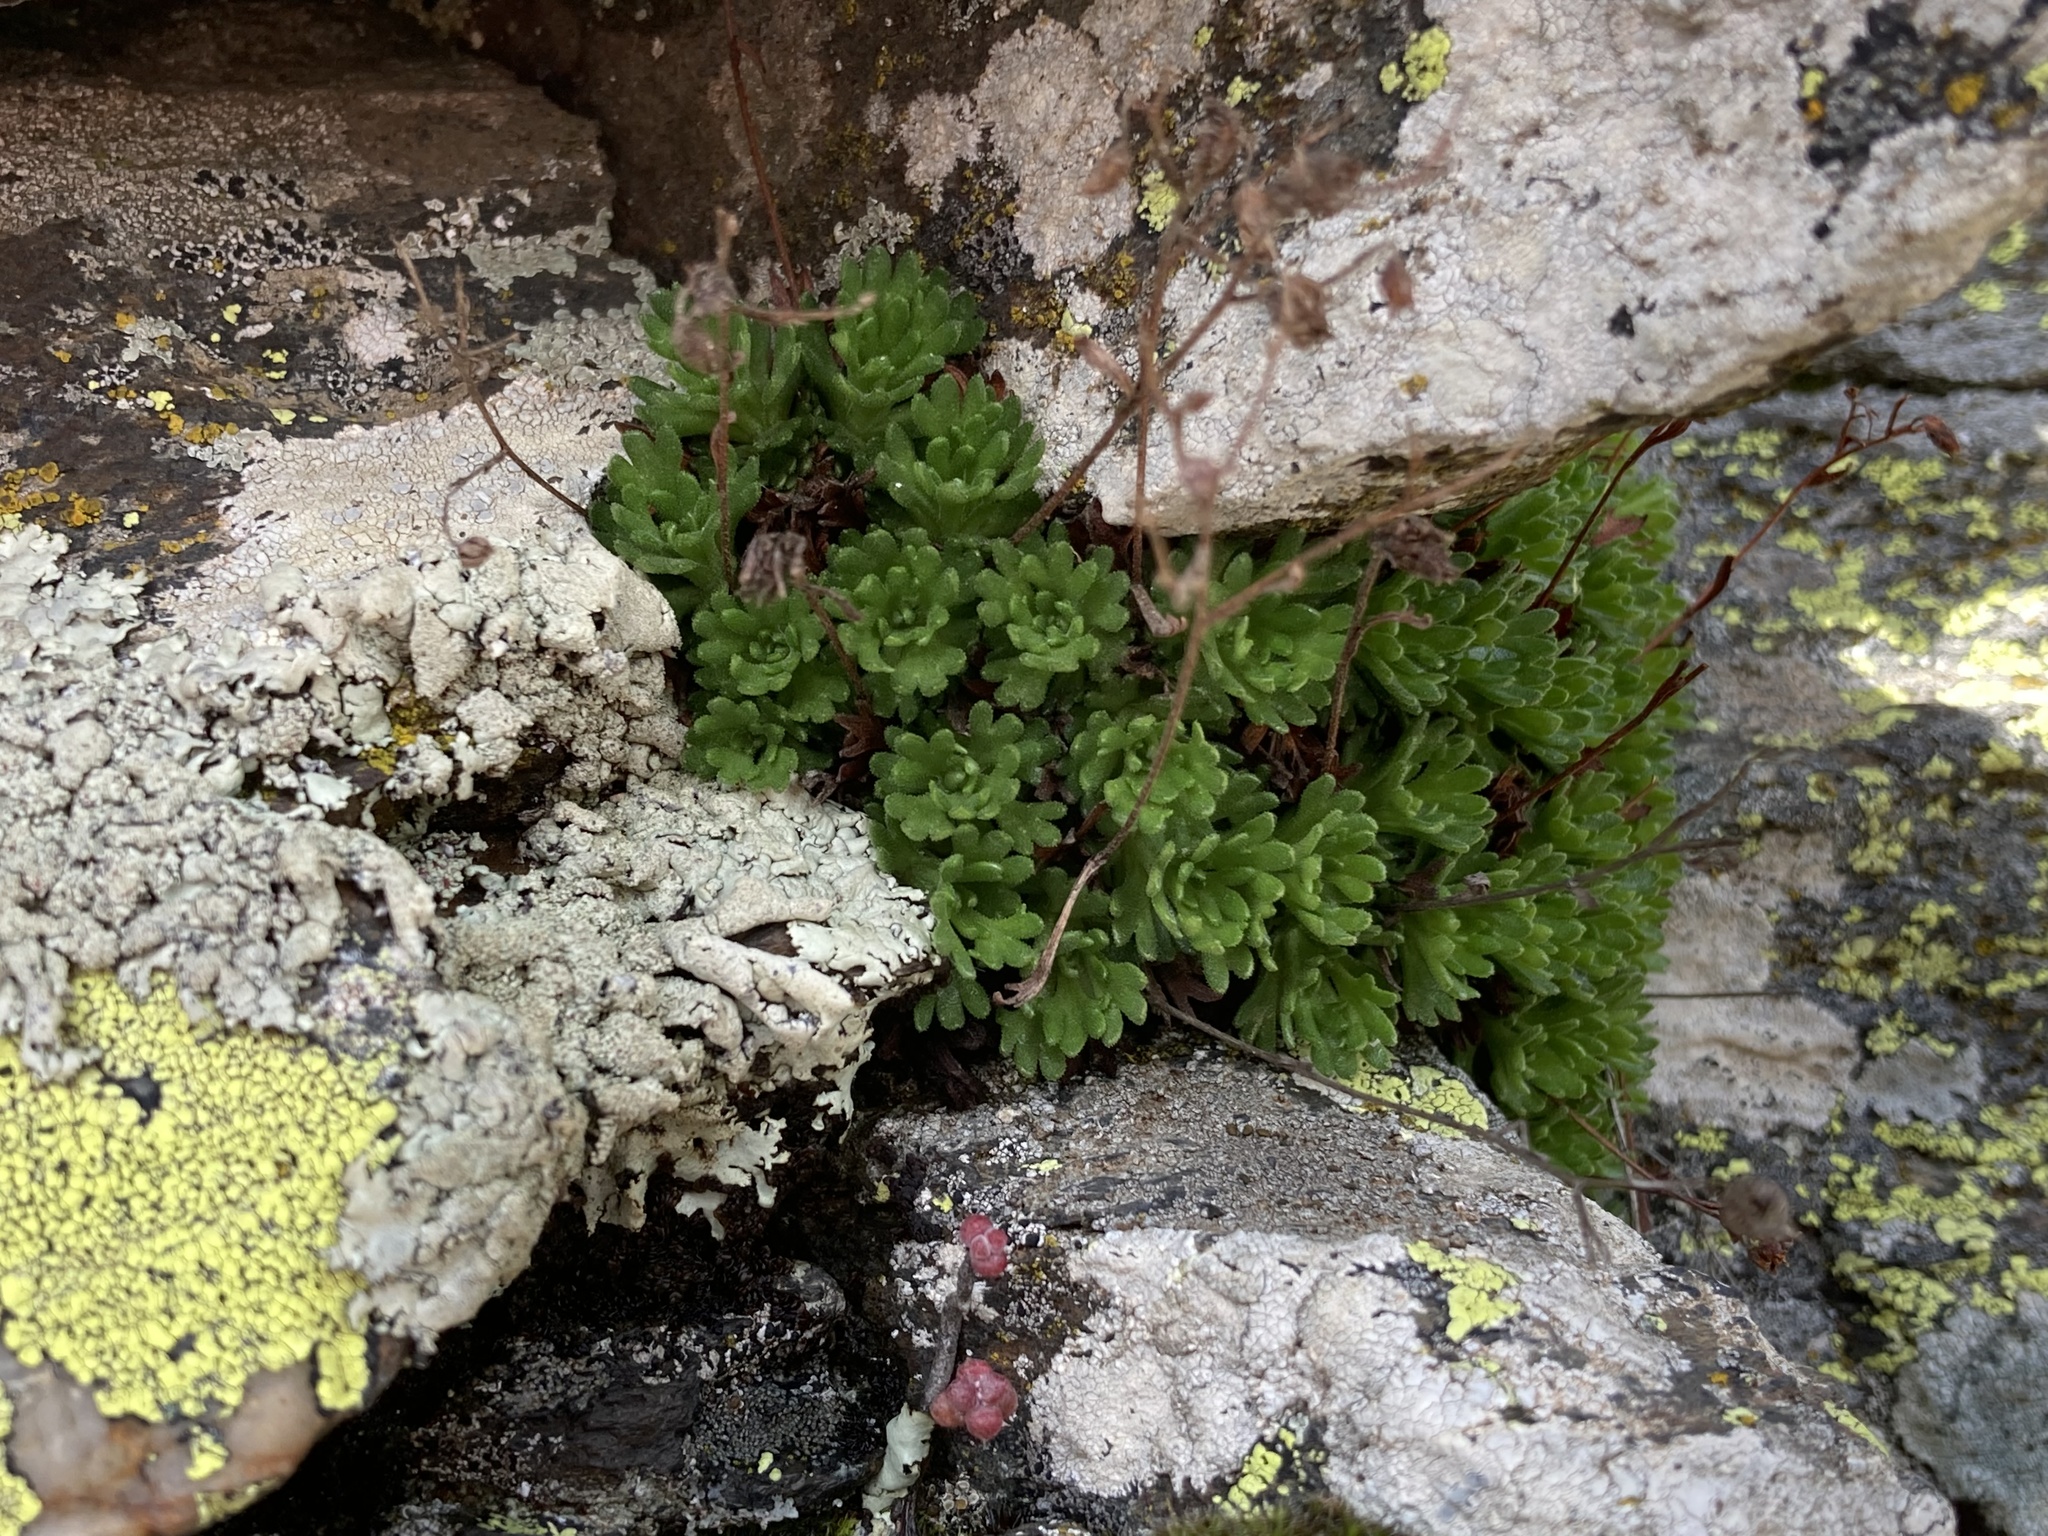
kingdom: Plantae
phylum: Tracheophyta
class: Magnoliopsida
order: Saxifragales
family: Saxifragaceae
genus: Saxifraga
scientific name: Saxifraga vayredana
